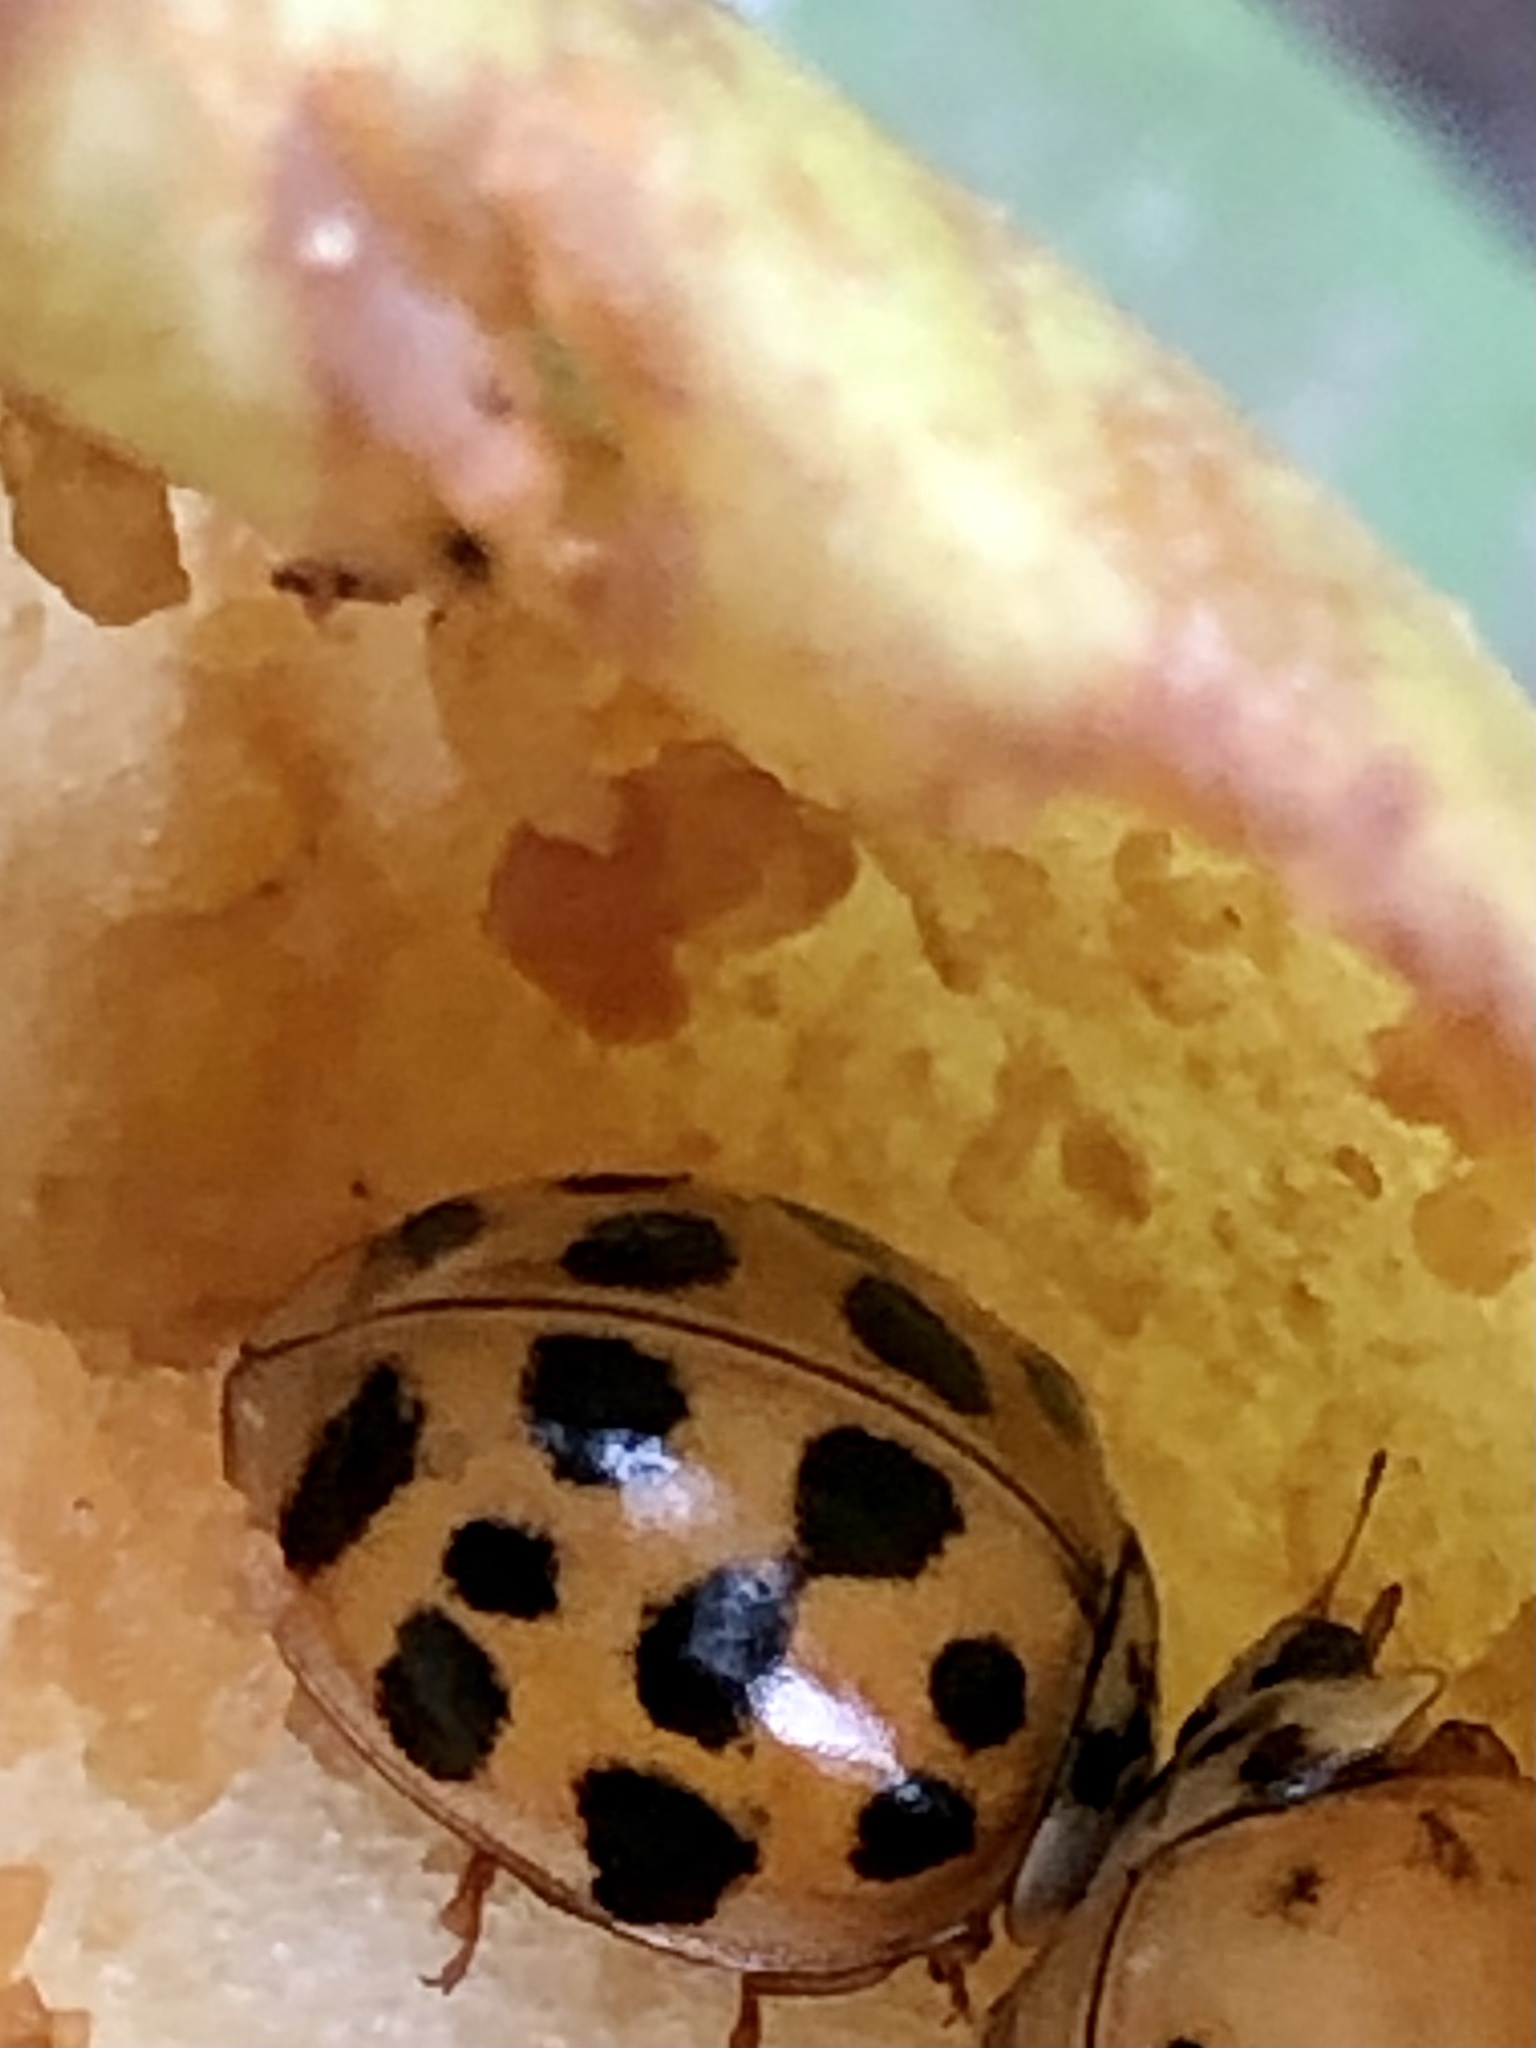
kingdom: Animalia
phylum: Arthropoda
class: Insecta
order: Coleoptera
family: Coccinellidae
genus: Harmonia
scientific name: Harmonia axyridis
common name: Harlequin ladybird
